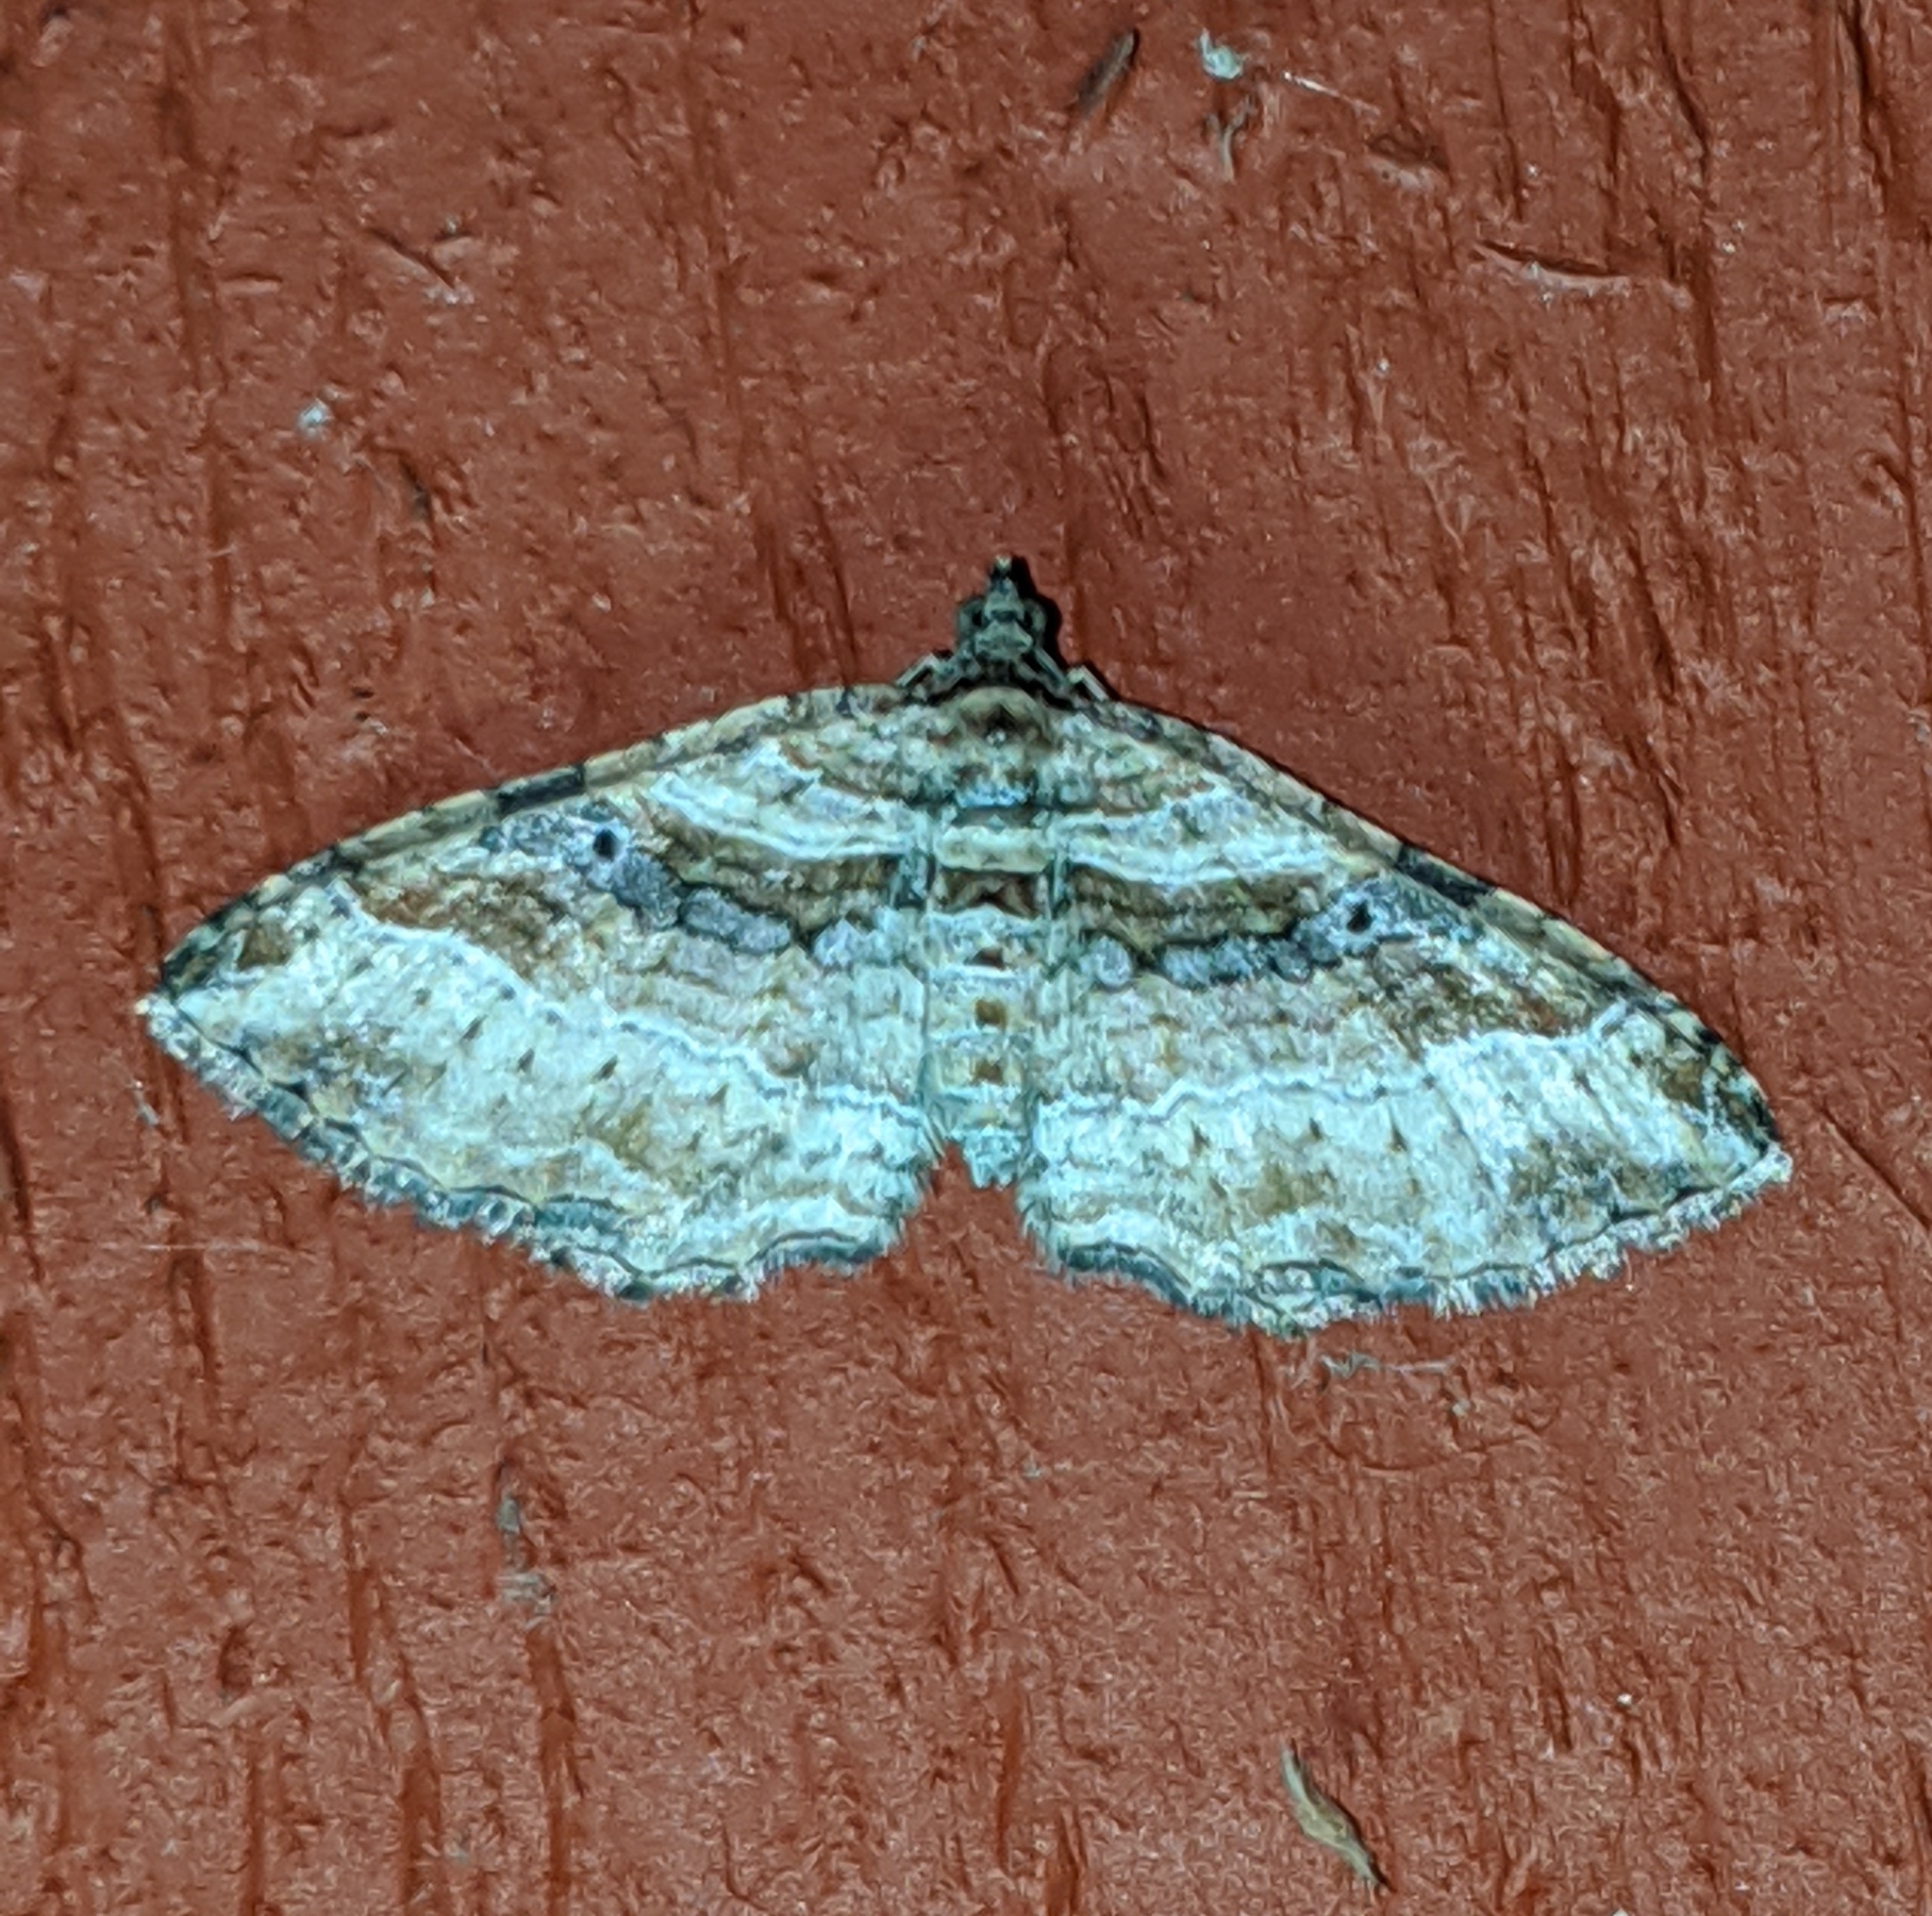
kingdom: Animalia
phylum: Arthropoda
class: Insecta
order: Lepidoptera
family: Geometridae
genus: Costaconvexa
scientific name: Costaconvexa centrostrigaria
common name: Bent-line carpet
